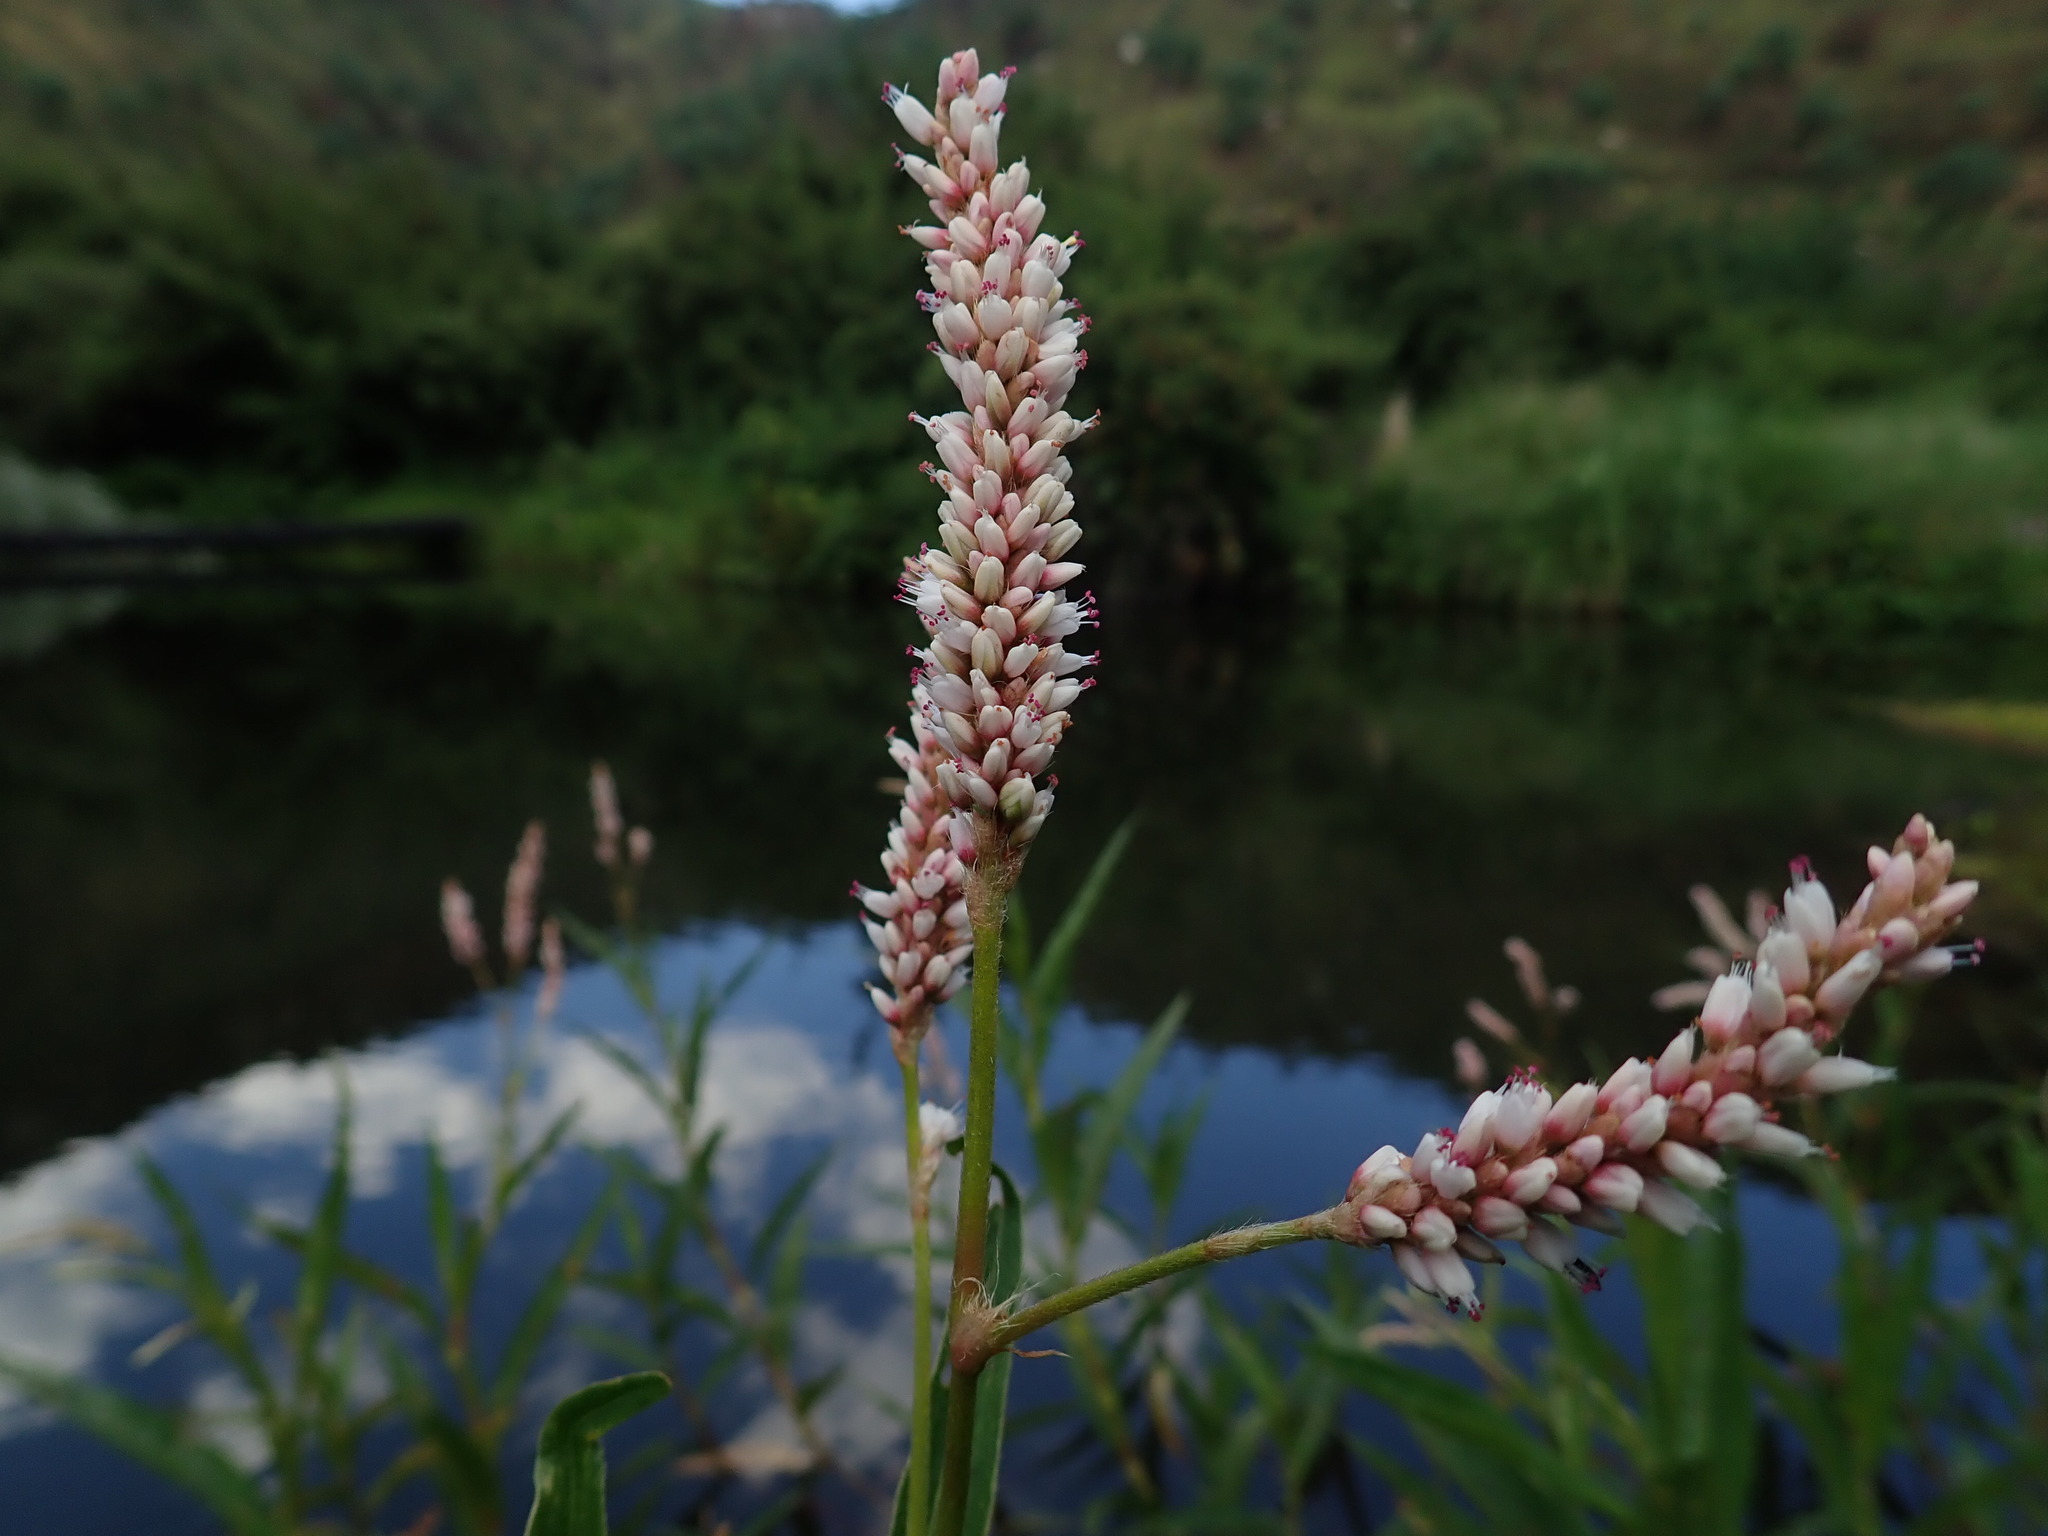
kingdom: Plantae
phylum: Tracheophyta
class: Magnoliopsida
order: Caryophyllales
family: Polygonaceae
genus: Persicaria
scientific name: Persicaria madagascariensis
